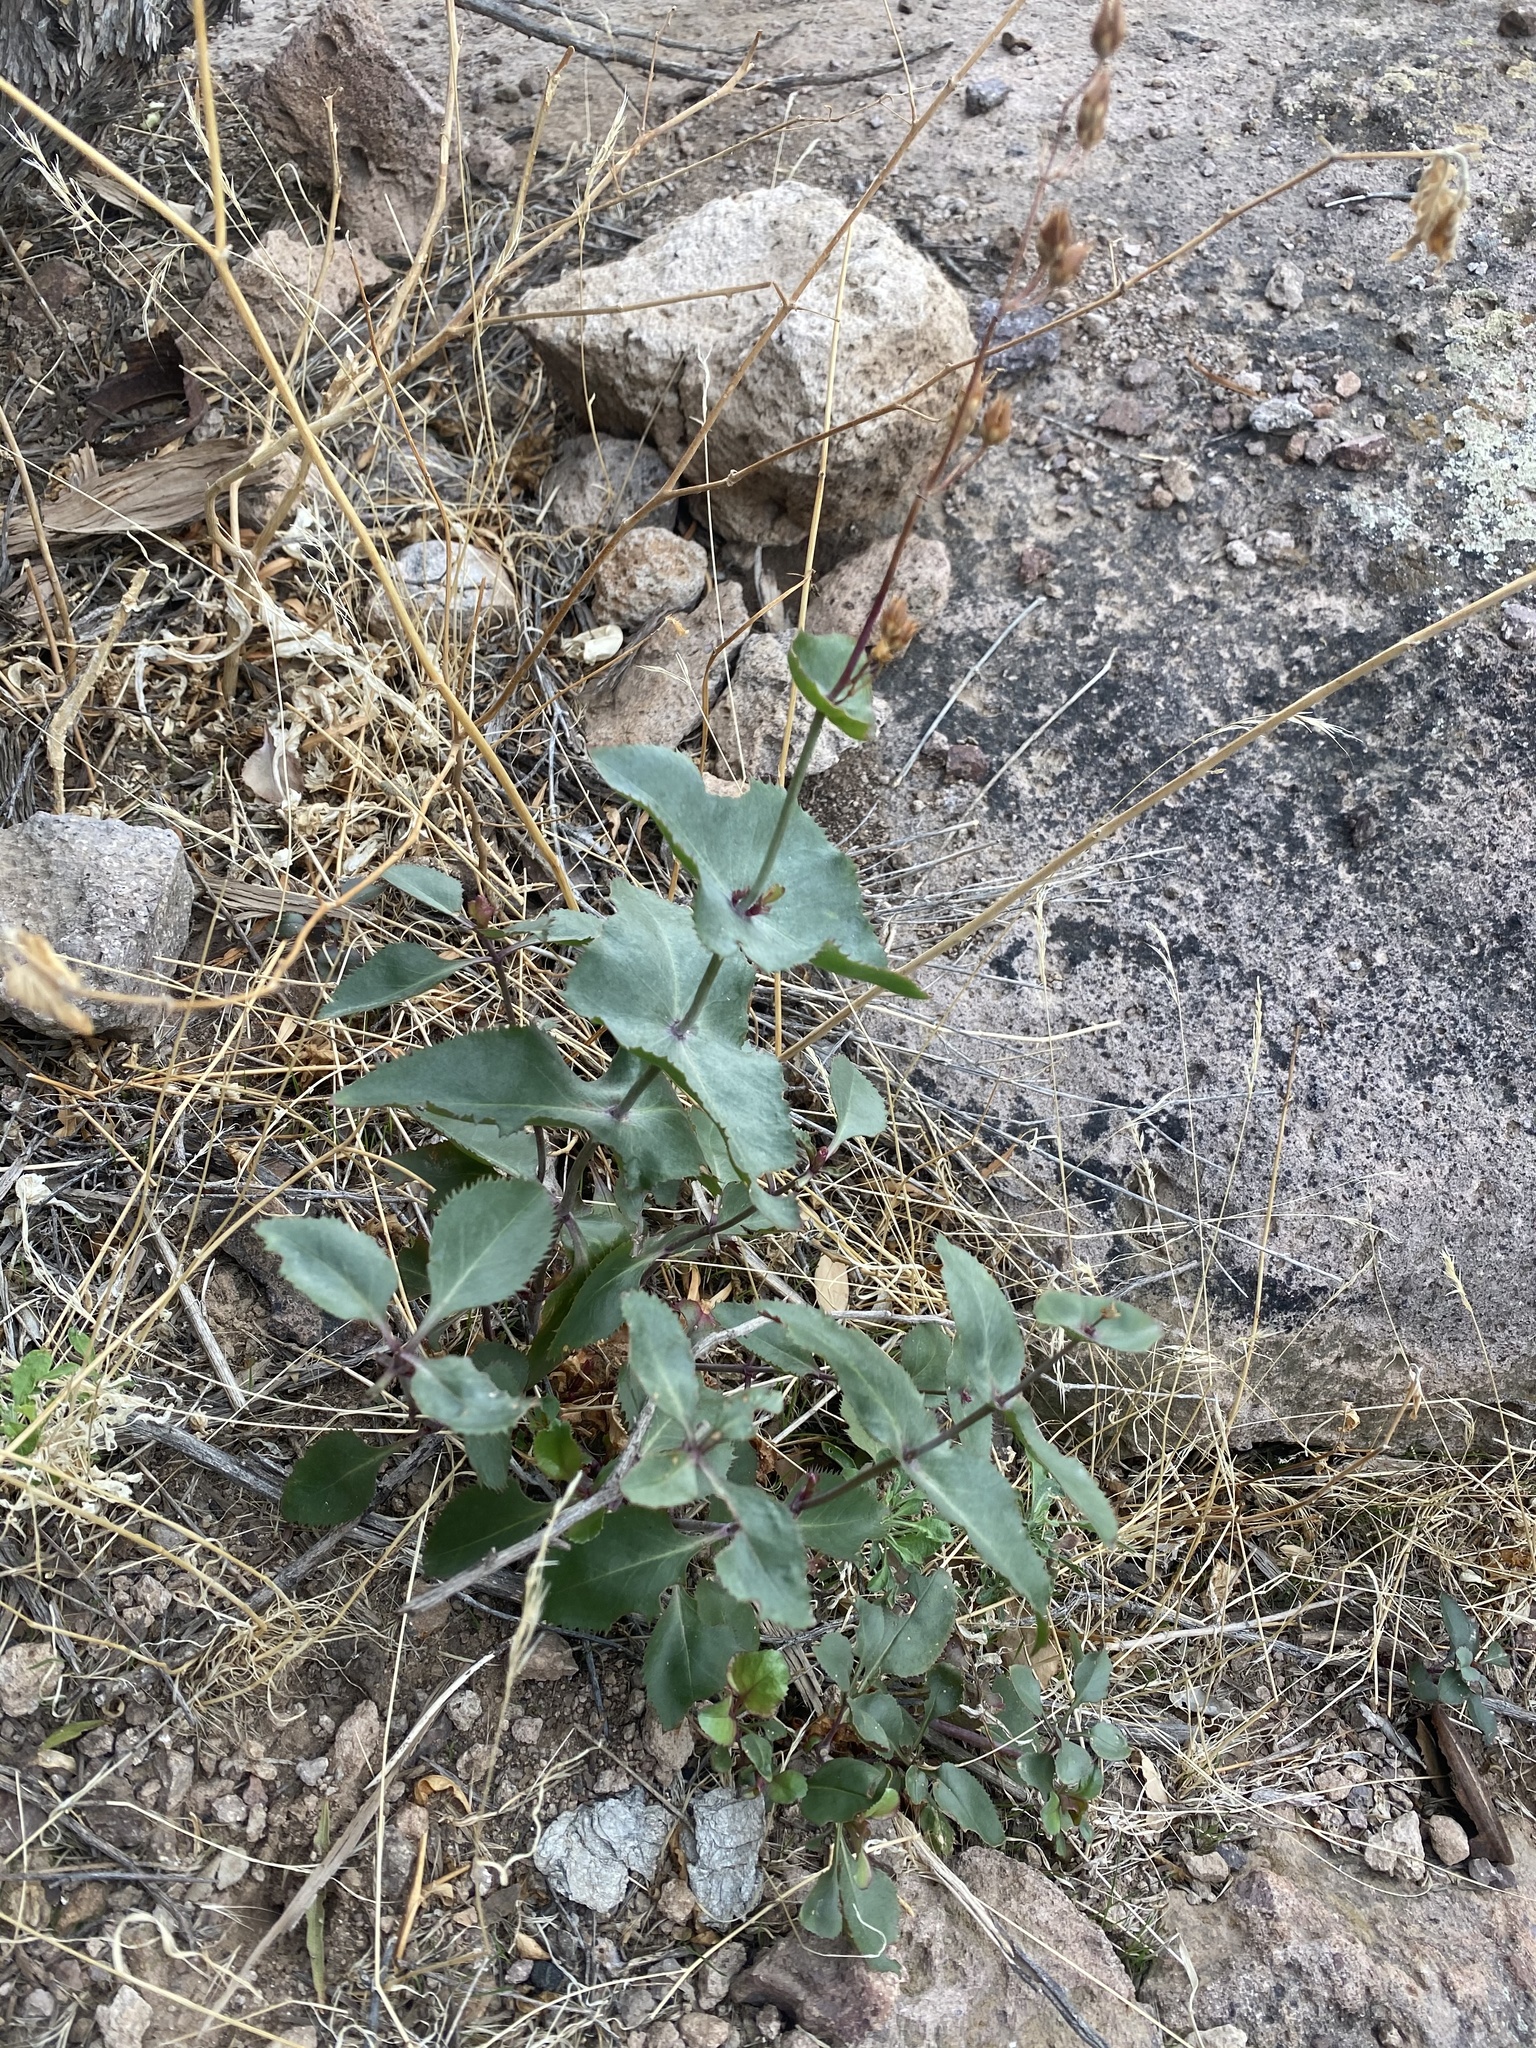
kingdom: Plantae
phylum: Tracheophyta
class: Magnoliopsida
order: Lamiales
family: Plantaginaceae
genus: Penstemon
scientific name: Penstemon pseudospectabilis
